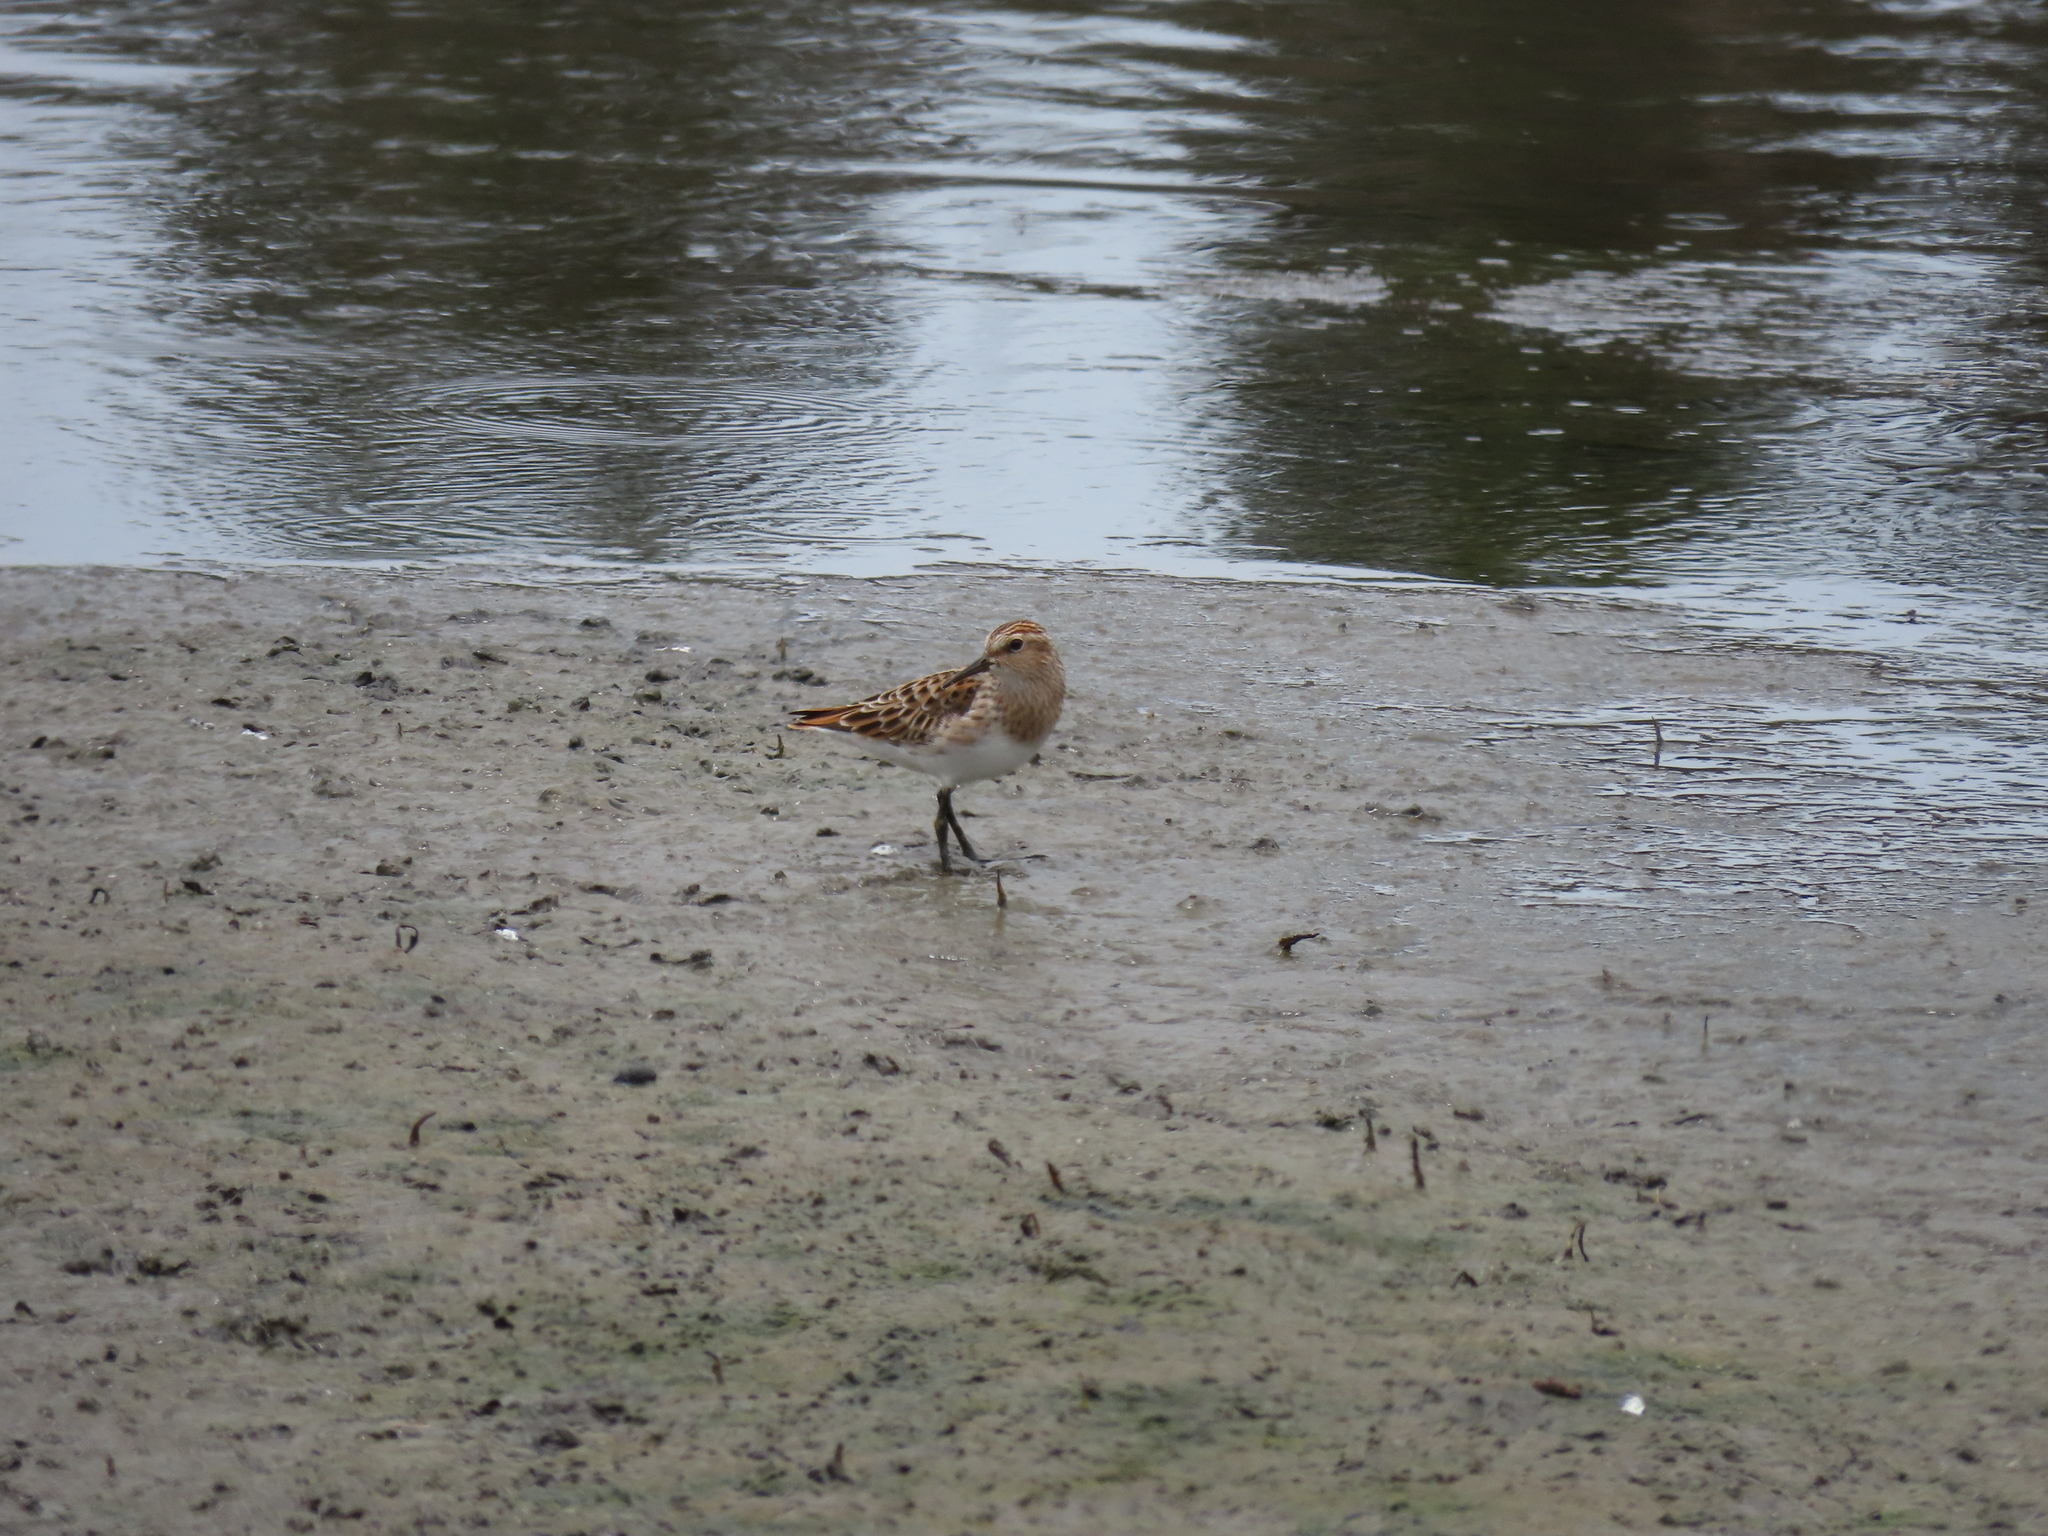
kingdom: Animalia
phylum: Chordata
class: Aves
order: Charadriiformes
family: Scolopacidae
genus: Calidris
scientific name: Calidris subminuta
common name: Long-toed stint
